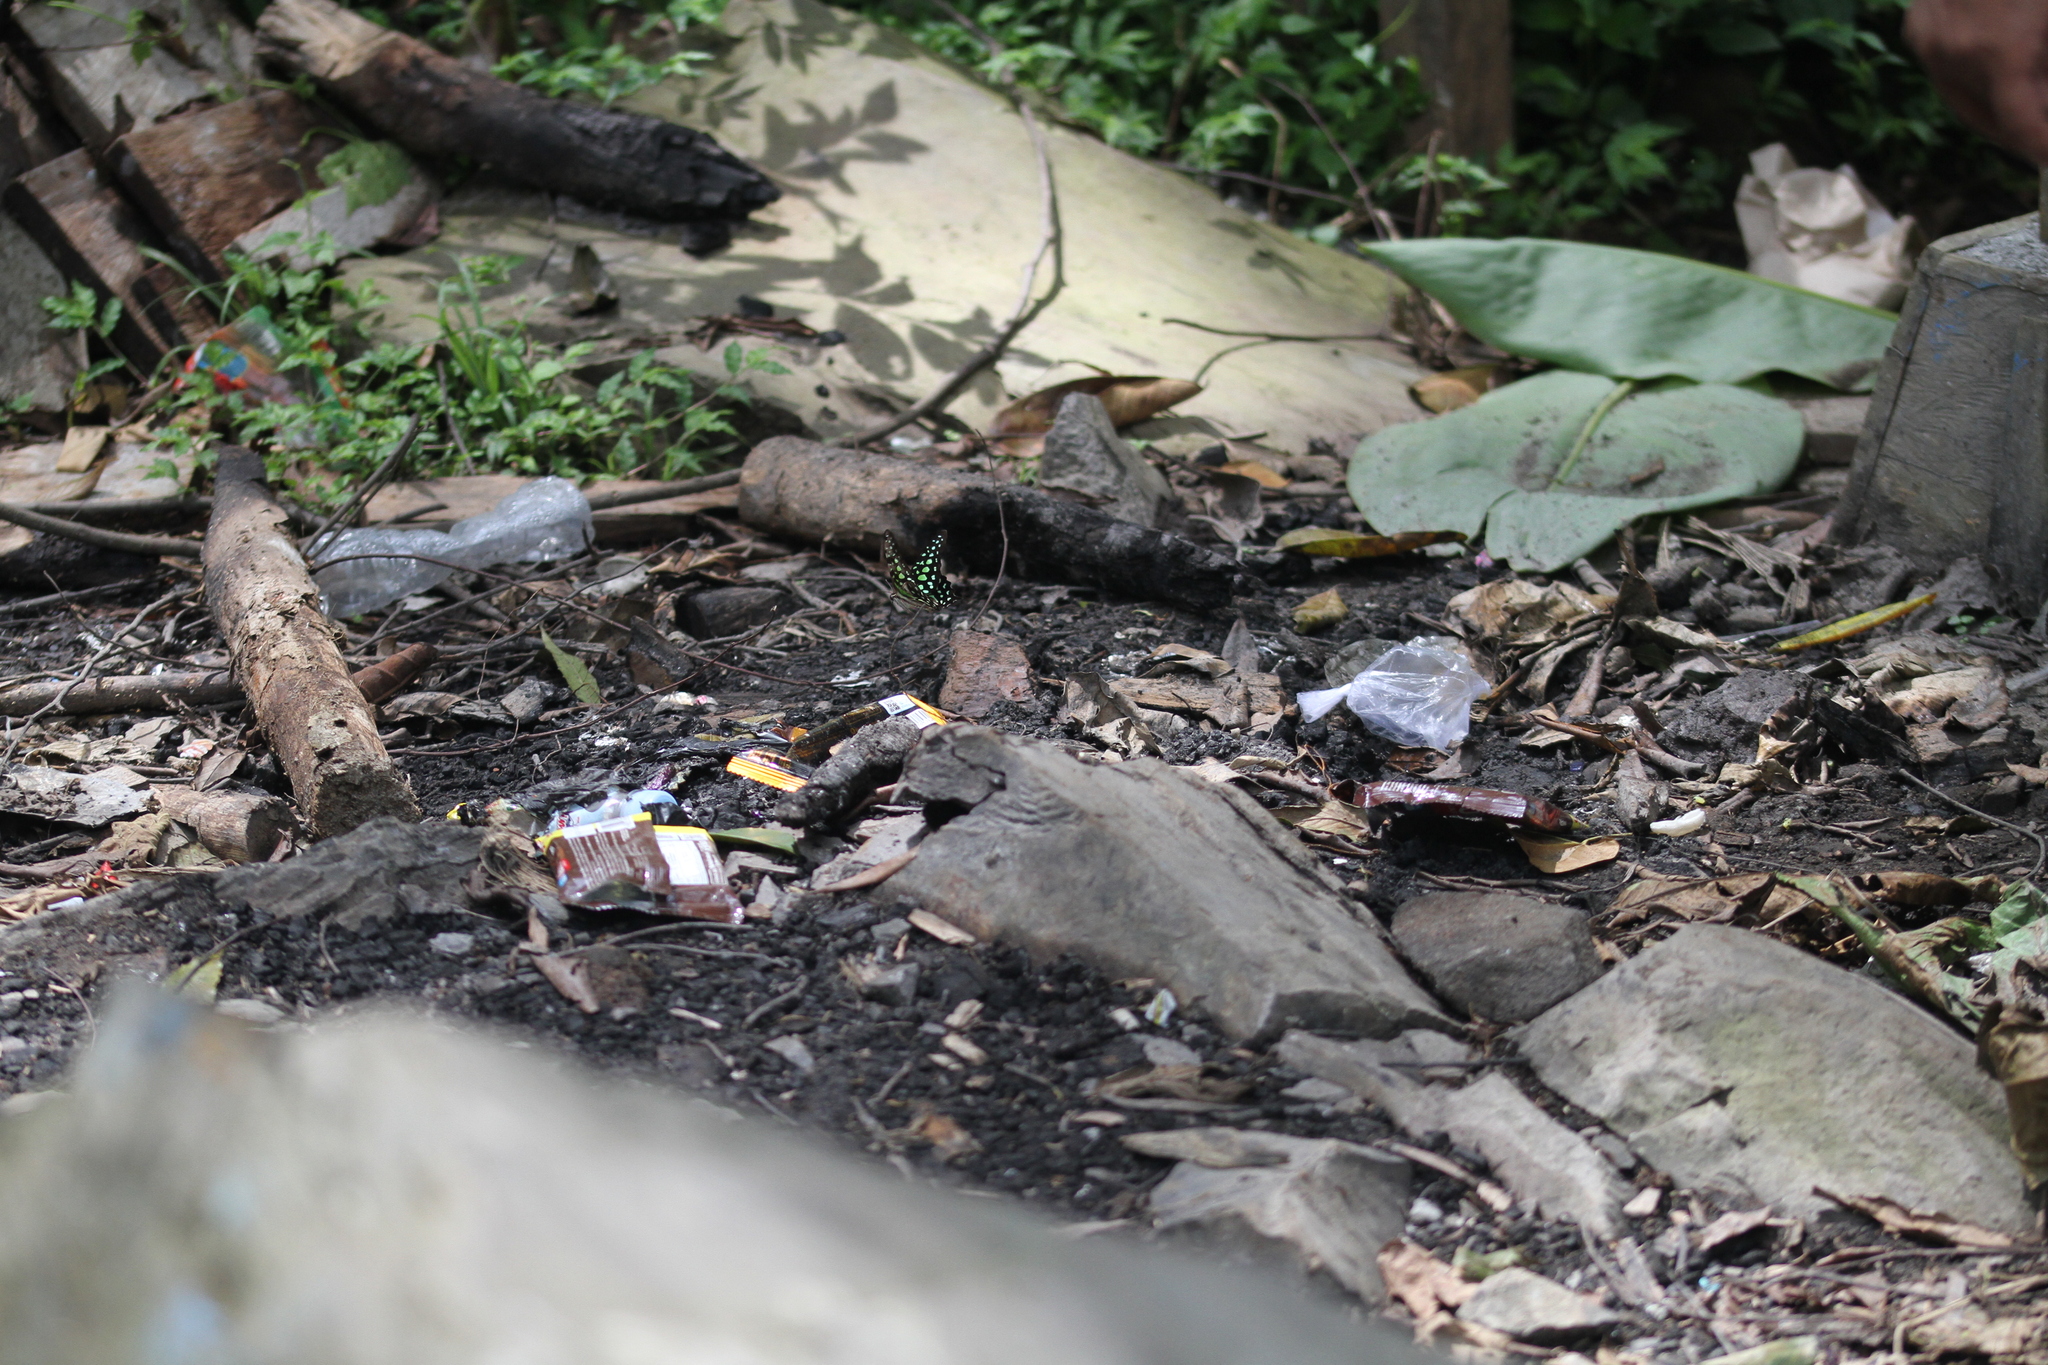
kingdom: Animalia
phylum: Arthropoda
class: Insecta
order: Lepidoptera
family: Papilionidae
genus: Graphium
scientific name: Graphium agamemnon
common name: Tailed jay
